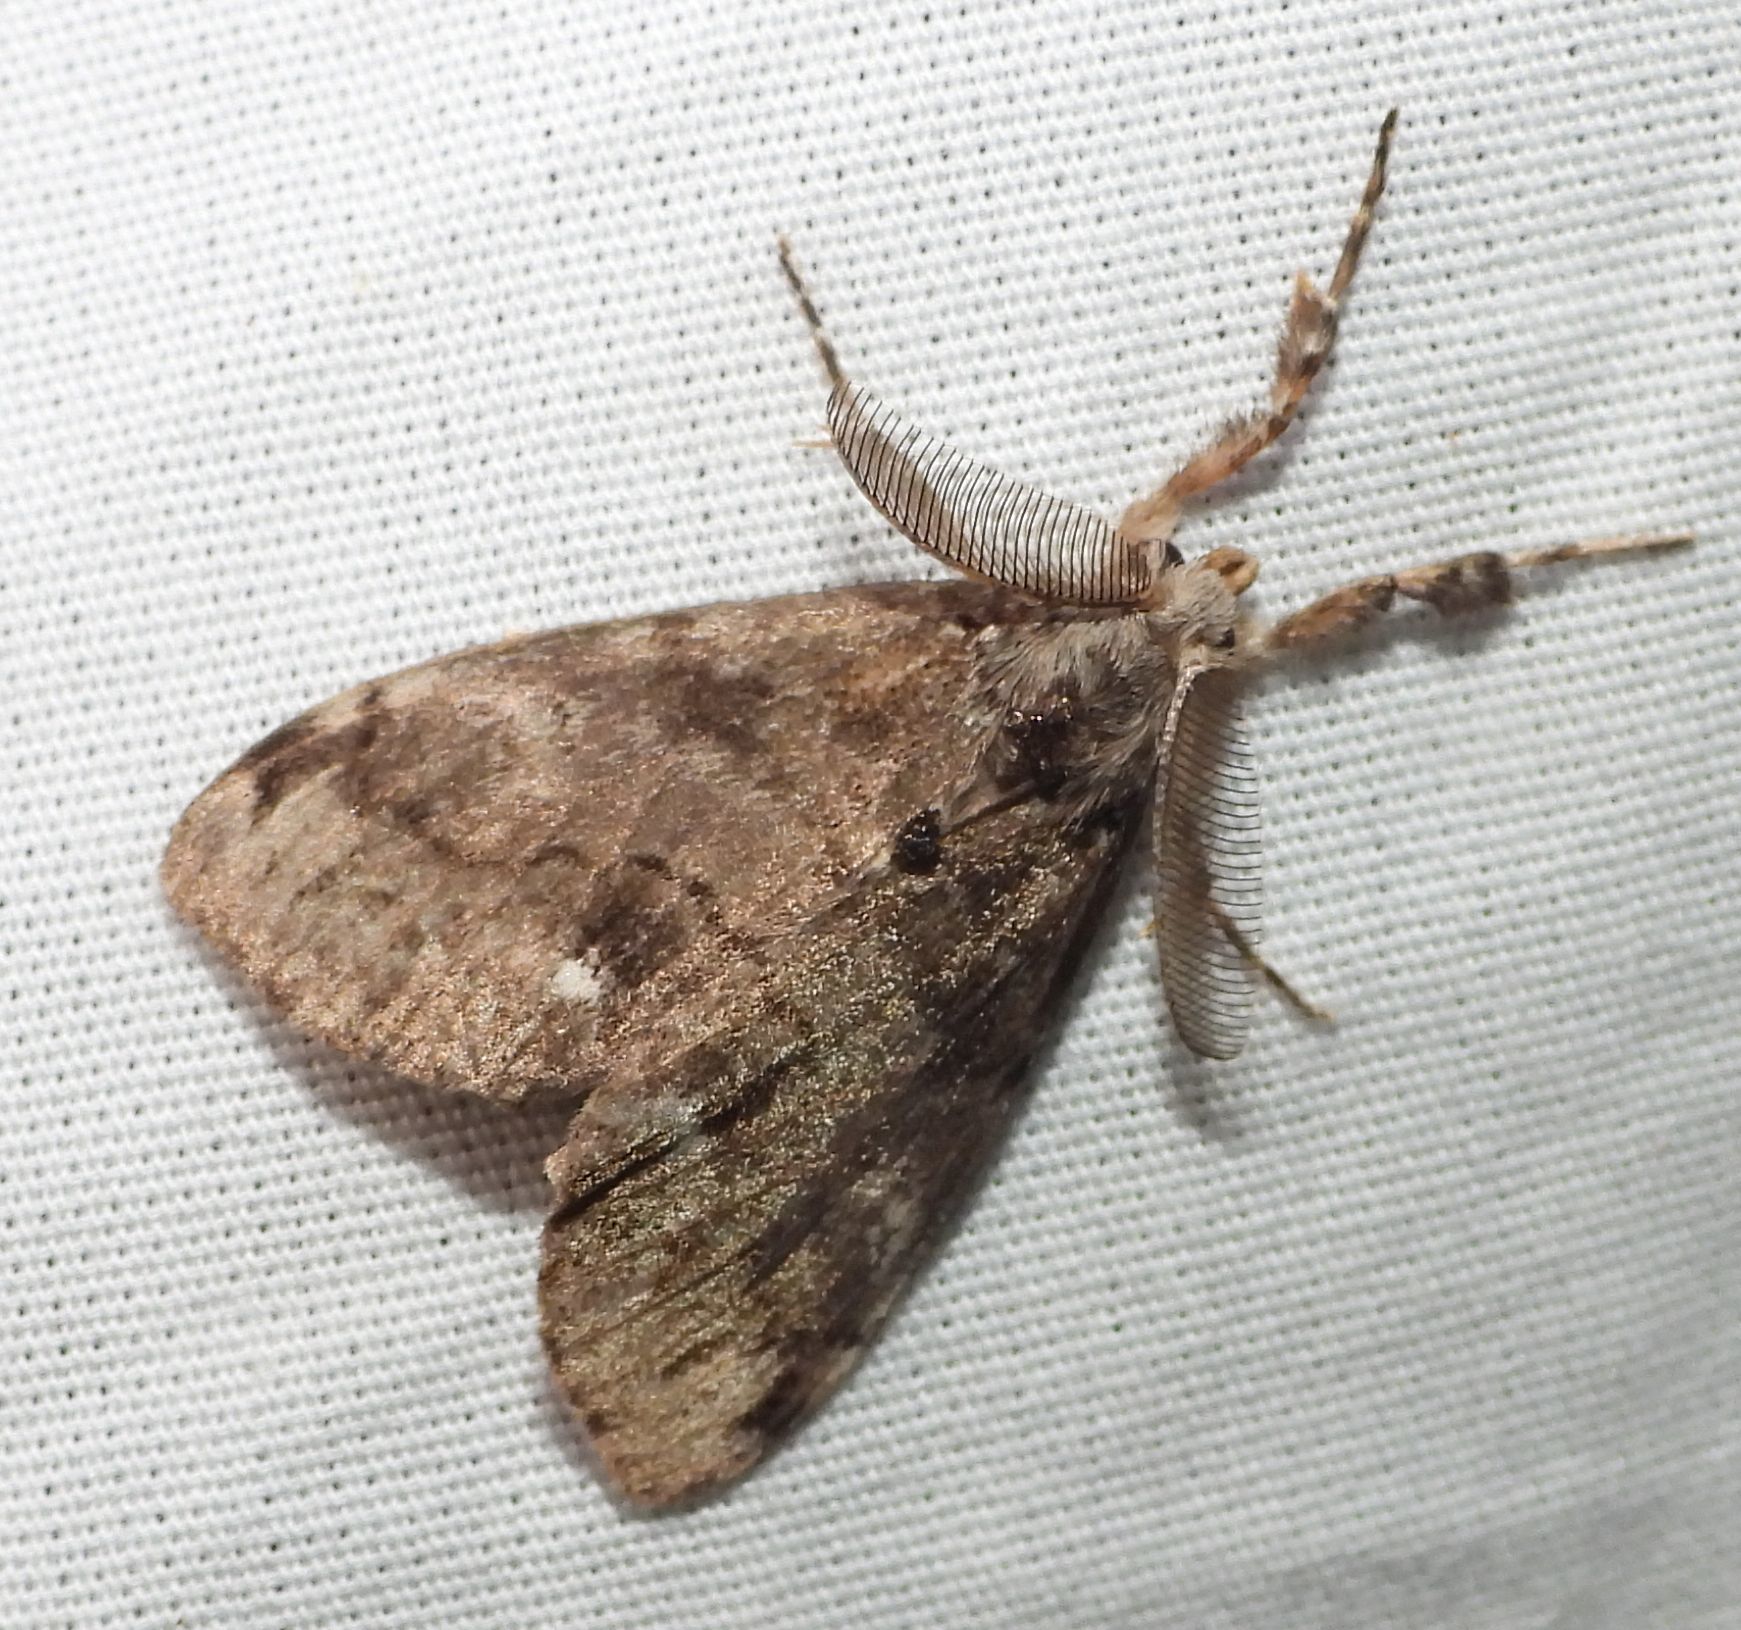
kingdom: Animalia
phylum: Arthropoda
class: Insecta
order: Lepidoptera
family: Erebidae
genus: Orgyia
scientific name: Orgyia leucostigma
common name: White-marked tussock moth
